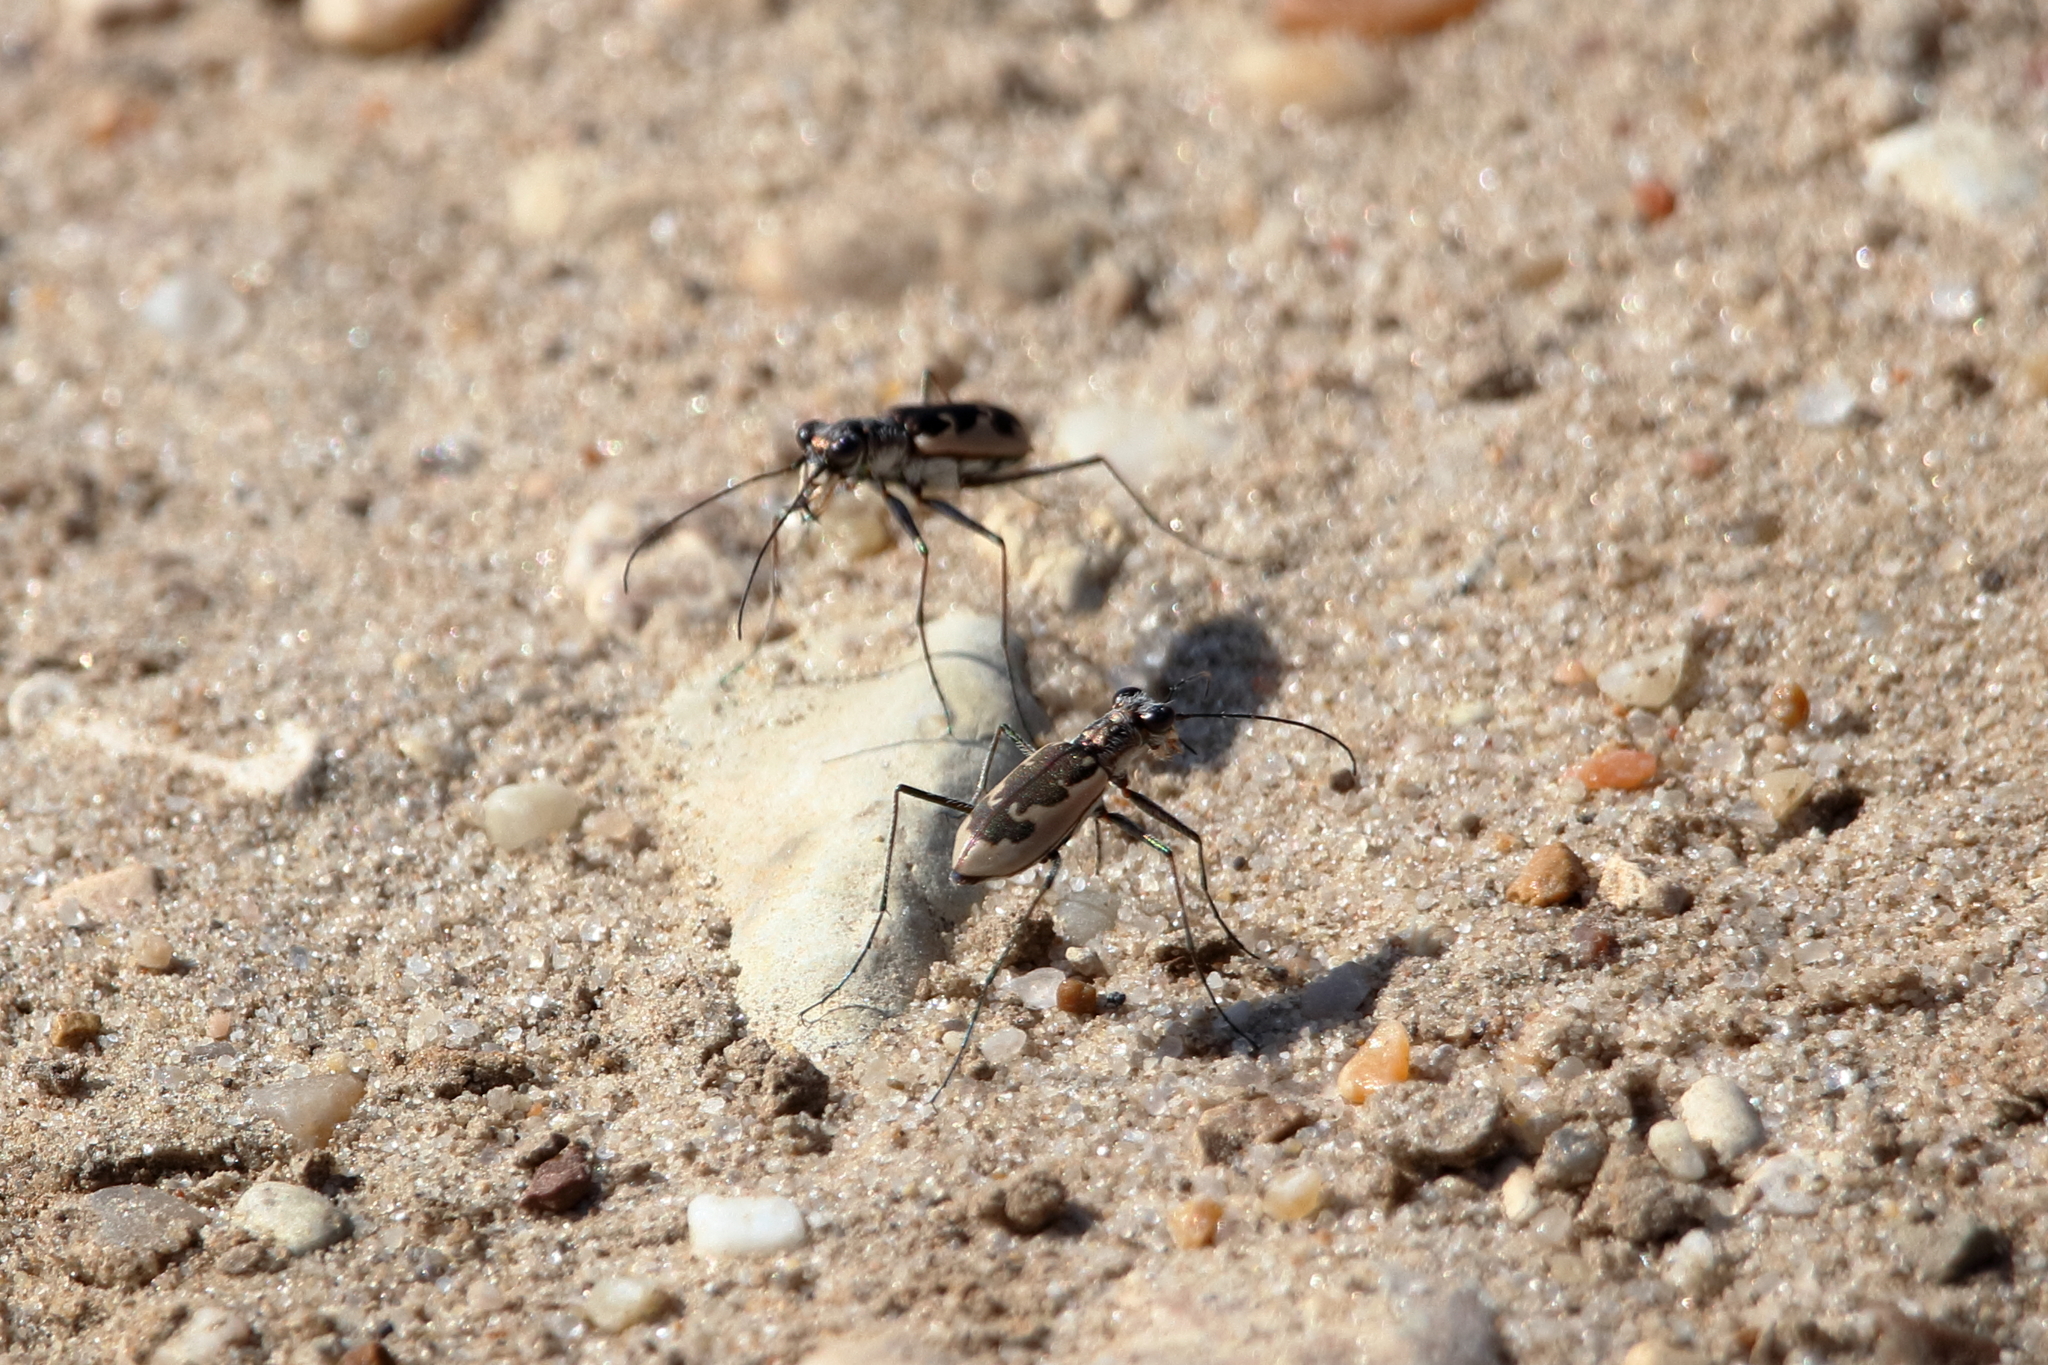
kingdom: Animalia
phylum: Arthropoda
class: Insecta
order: Coleoptera
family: Carabidae
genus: Ellipsoptera
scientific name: Ellipsoptera wapleri
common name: White-sand tiger beetle
